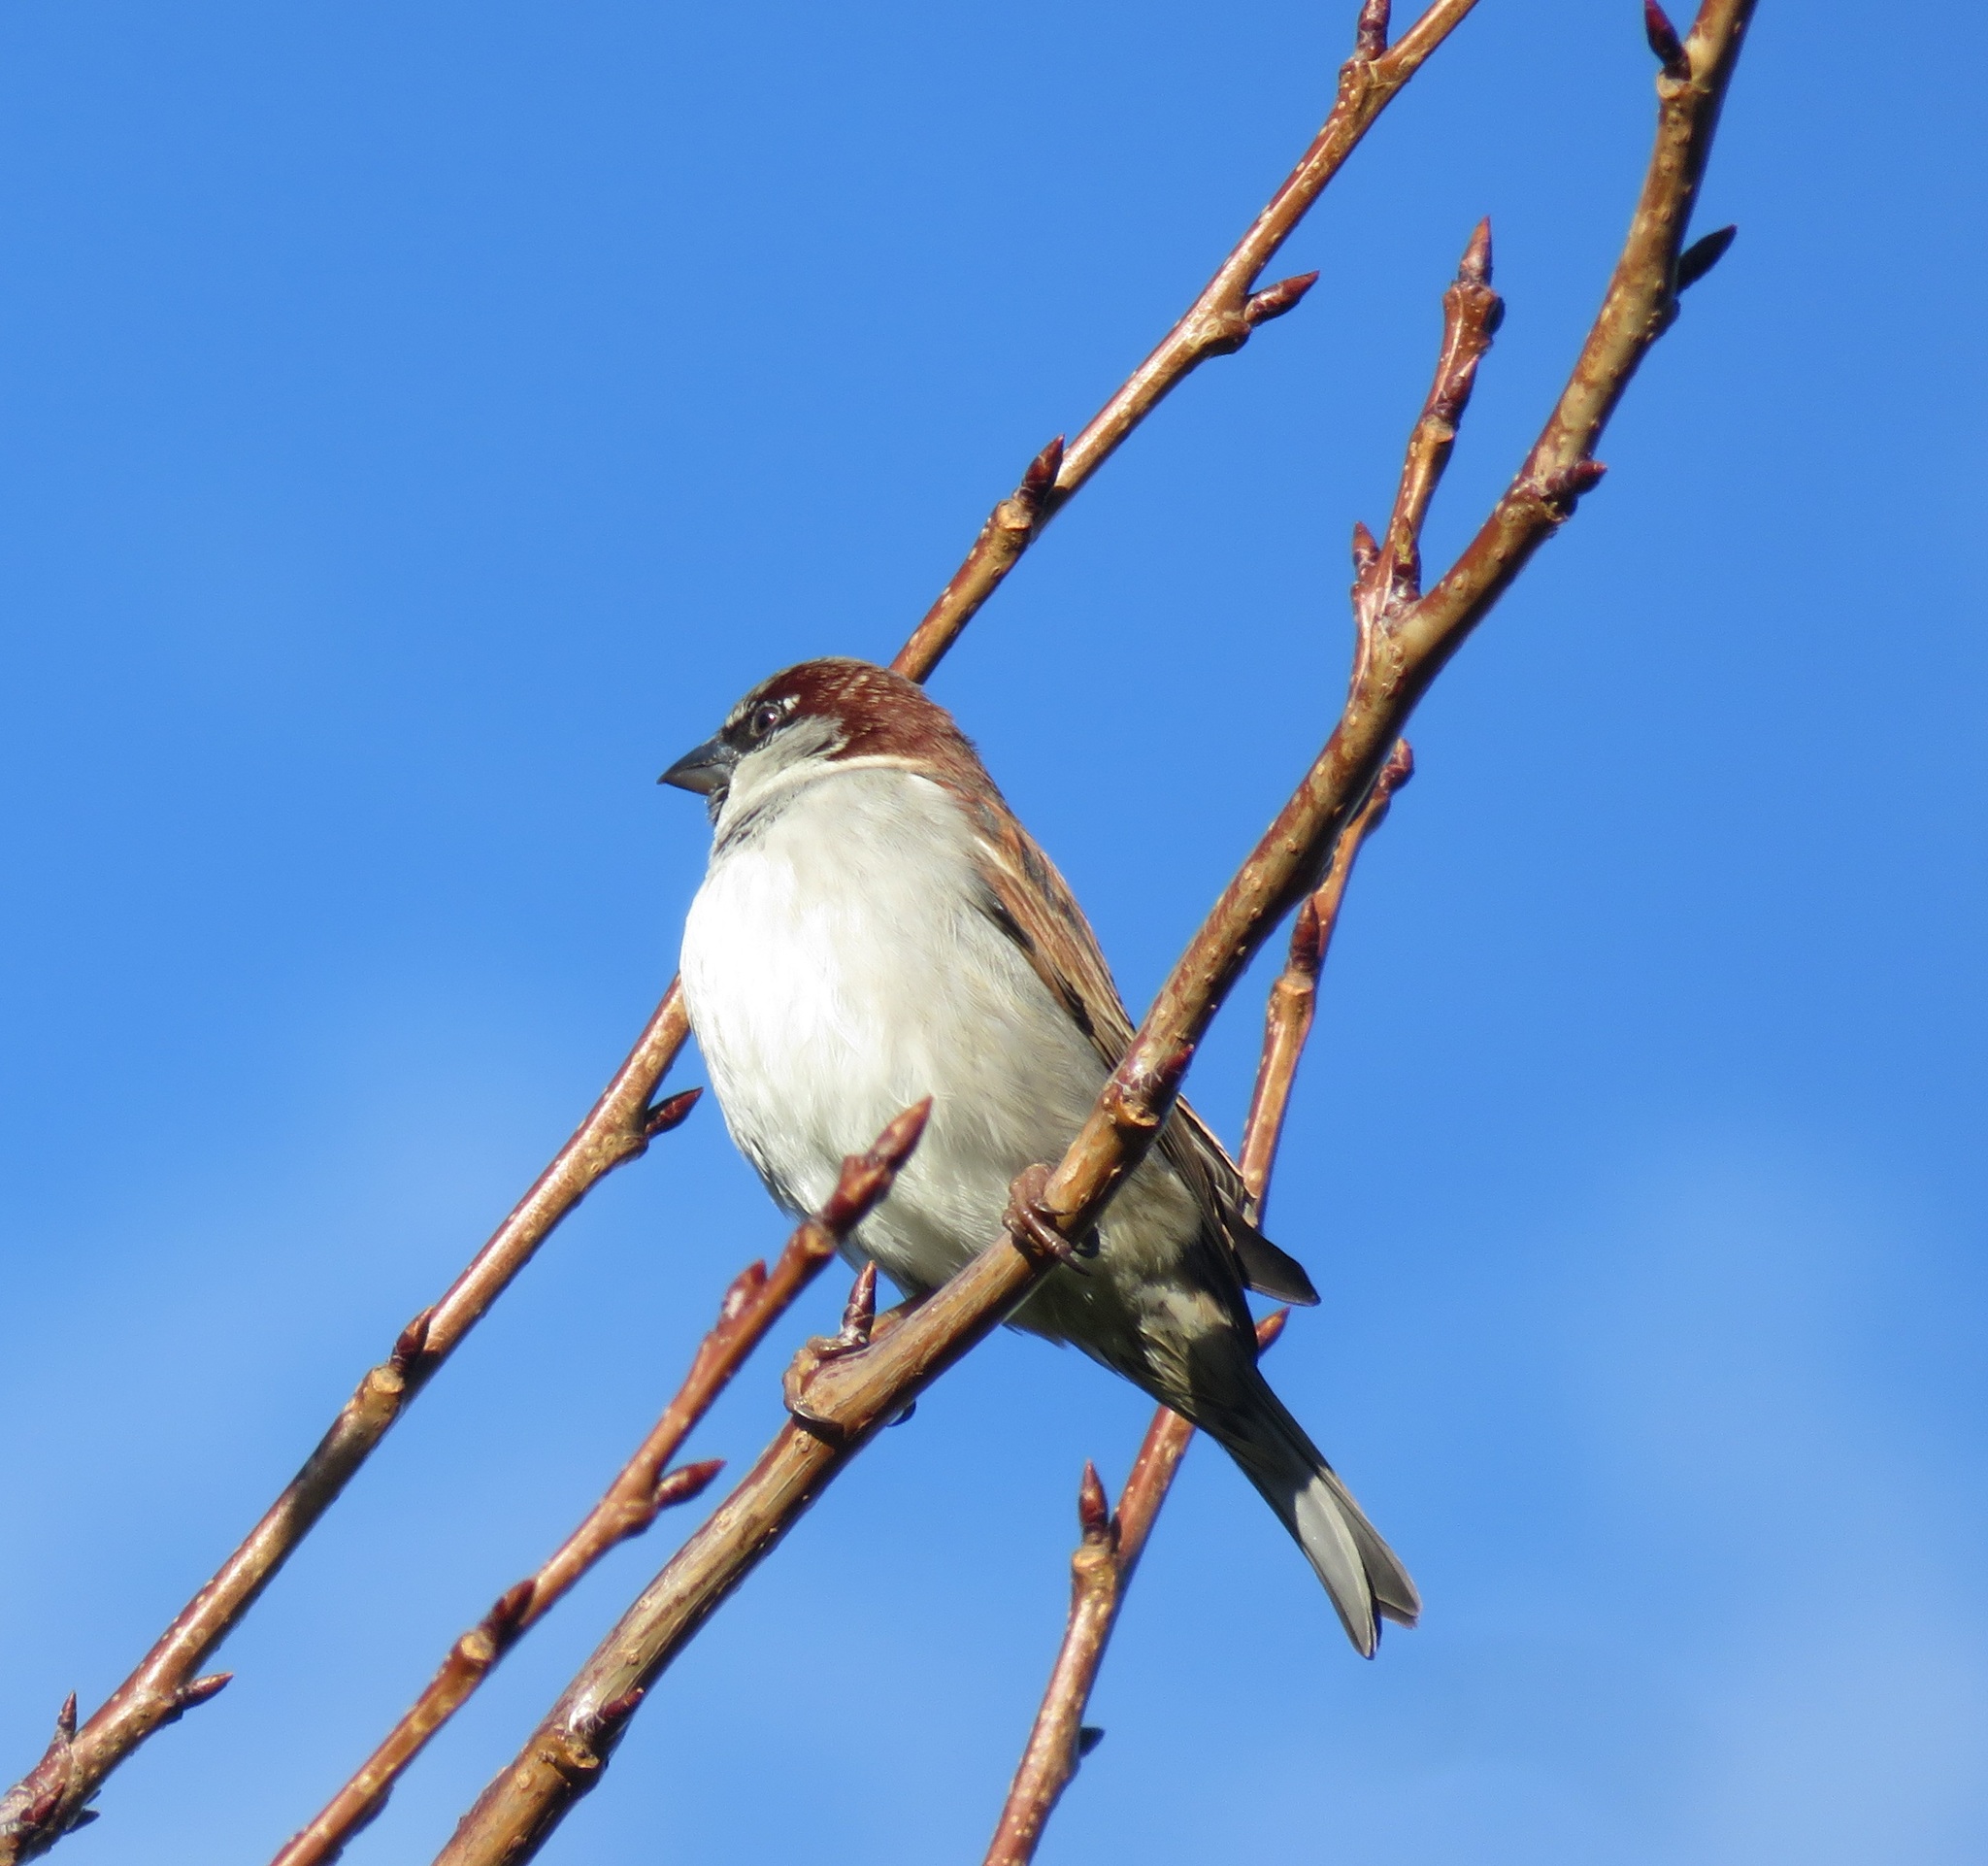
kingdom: Animalia
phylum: Chordata
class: Aves
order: Passeriformes
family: Passeridae
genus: Passer
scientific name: Passer domesticus
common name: House sparrow
